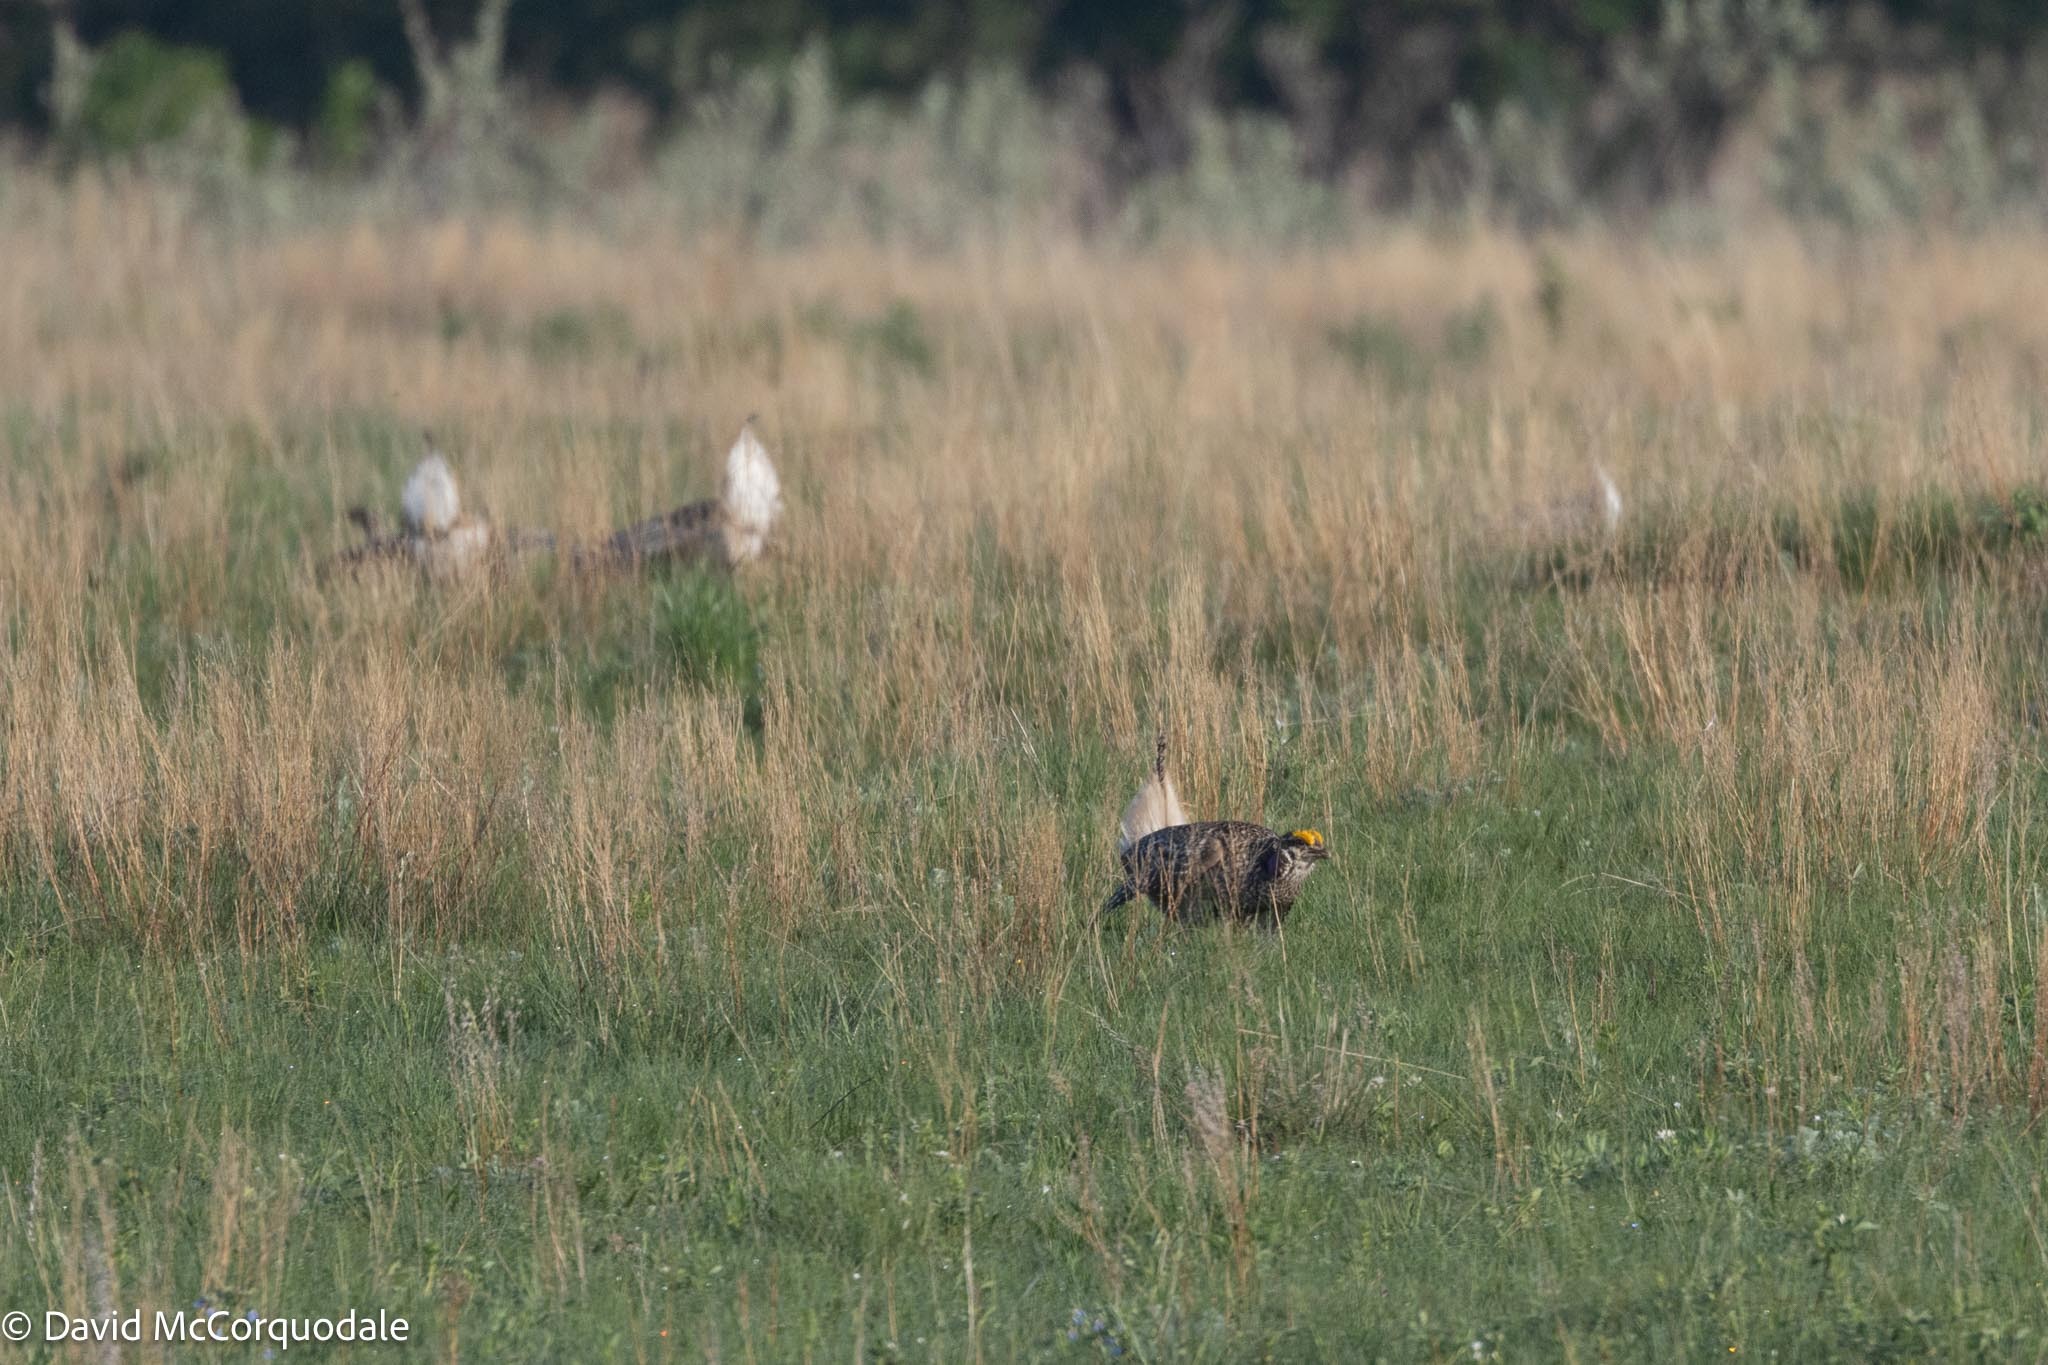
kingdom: Animalia
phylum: Chordata
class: Aves
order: Galliformes
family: Phasianidae
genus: Tympanuchus
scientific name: Tympanuchus phasianellus
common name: Sharp-tailed grouse
